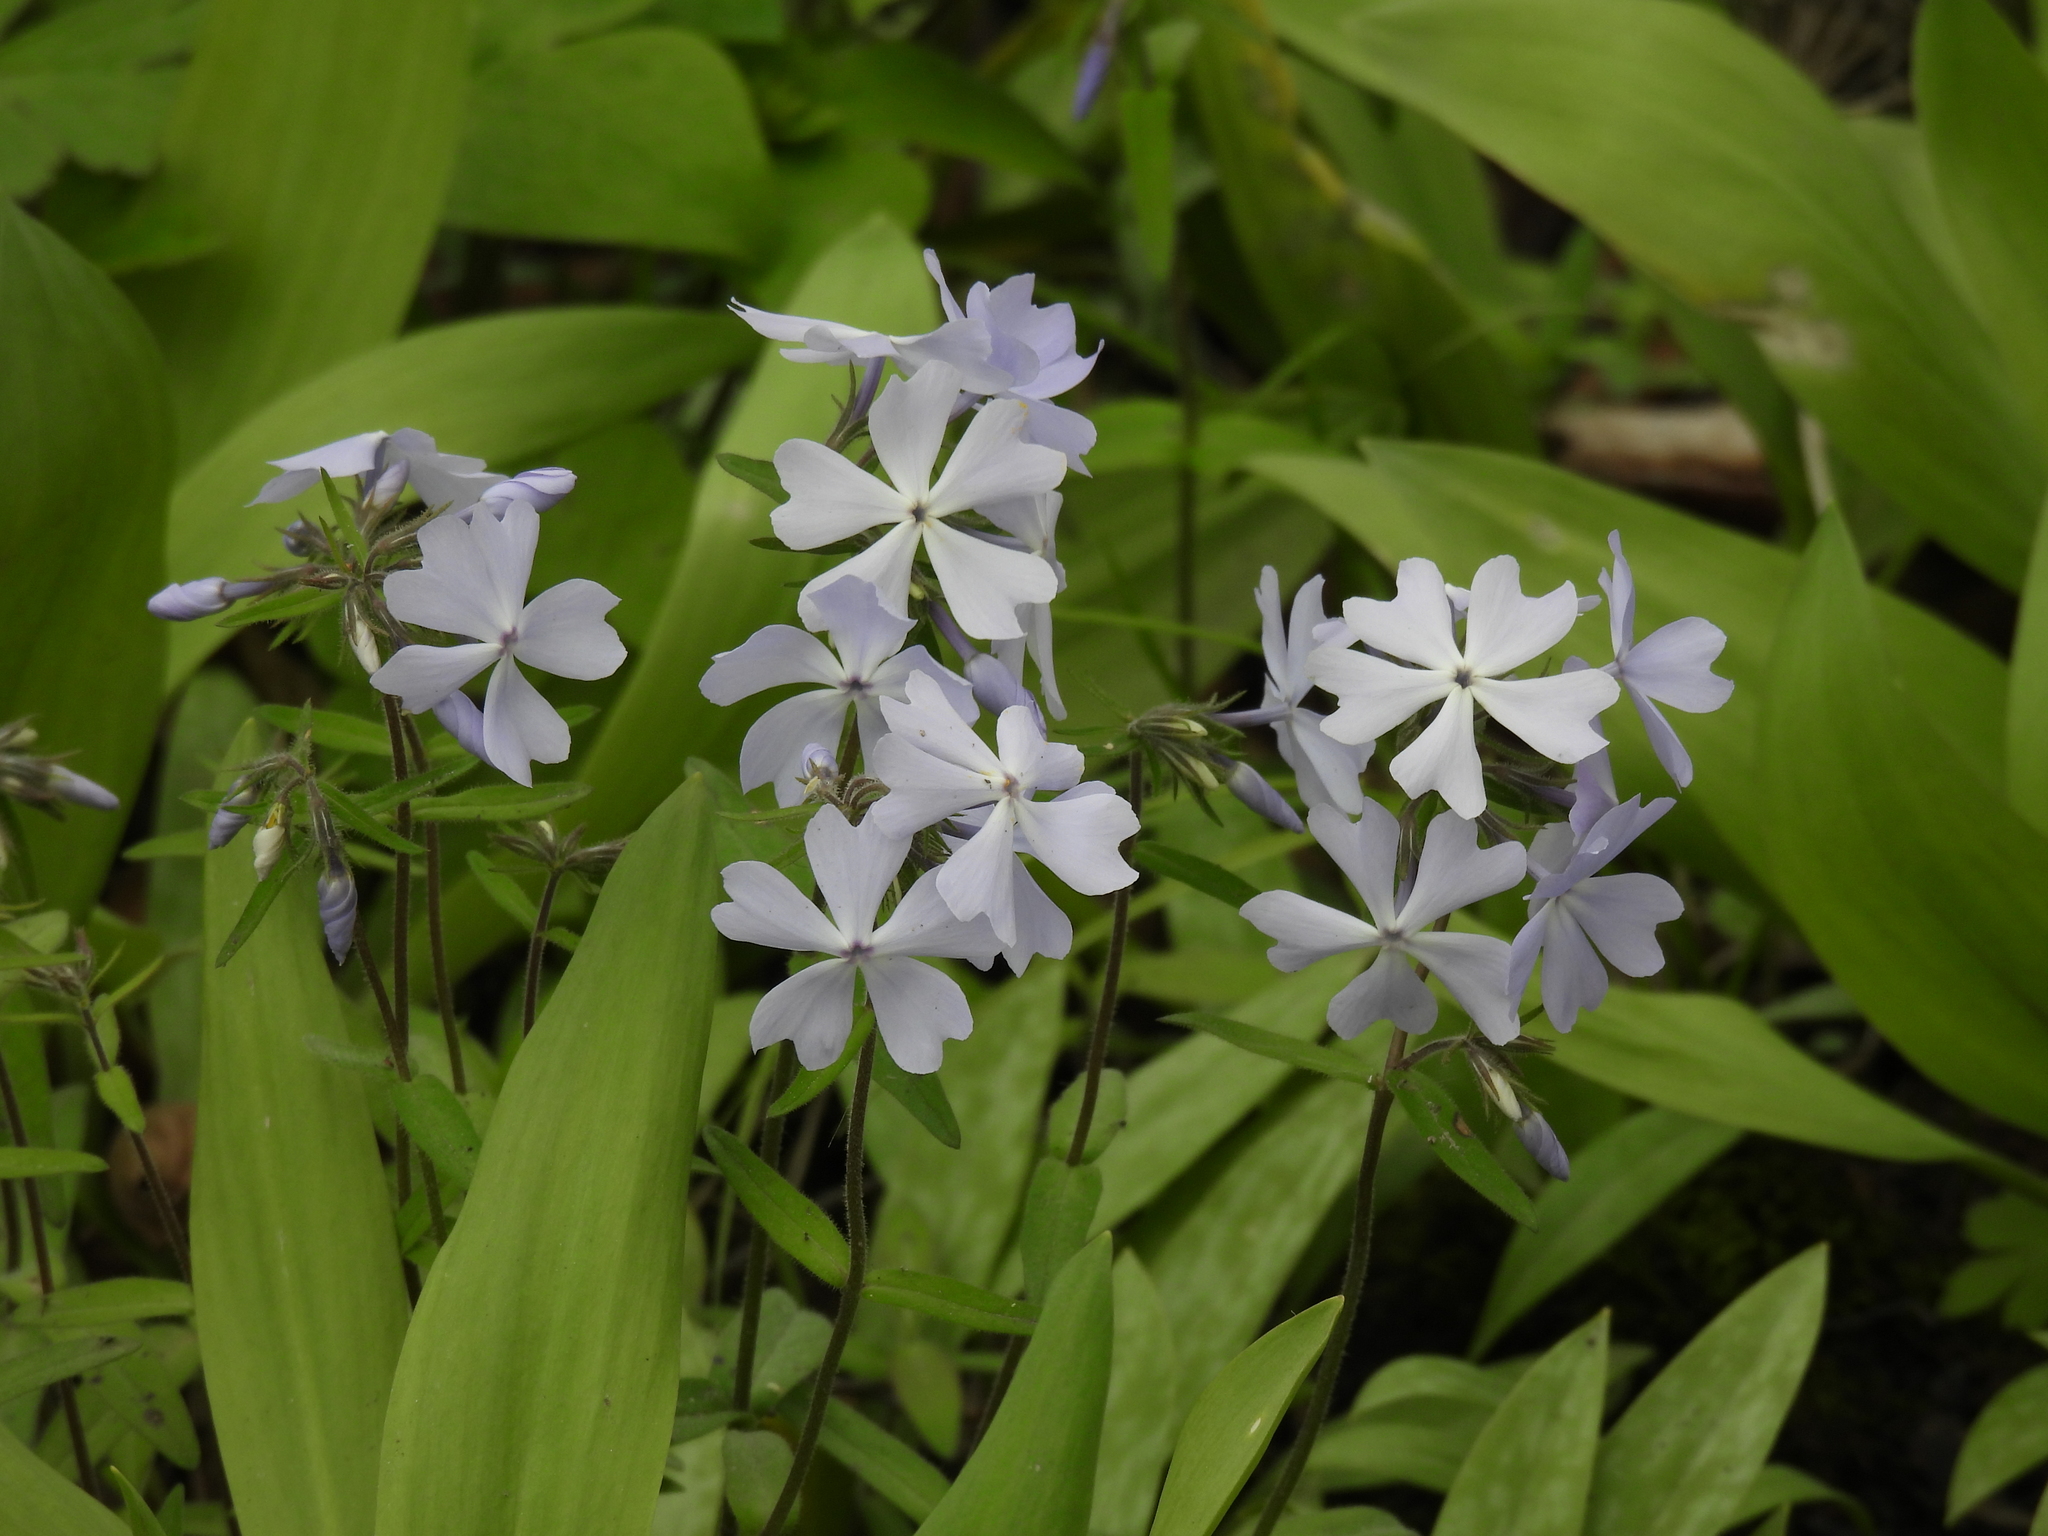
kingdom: Plantae
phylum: Tracheophyta
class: Magnoliopsida
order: Ericales
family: Polemoniaceae
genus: Phlox
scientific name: Phlox divaricata
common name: Blue phlox
